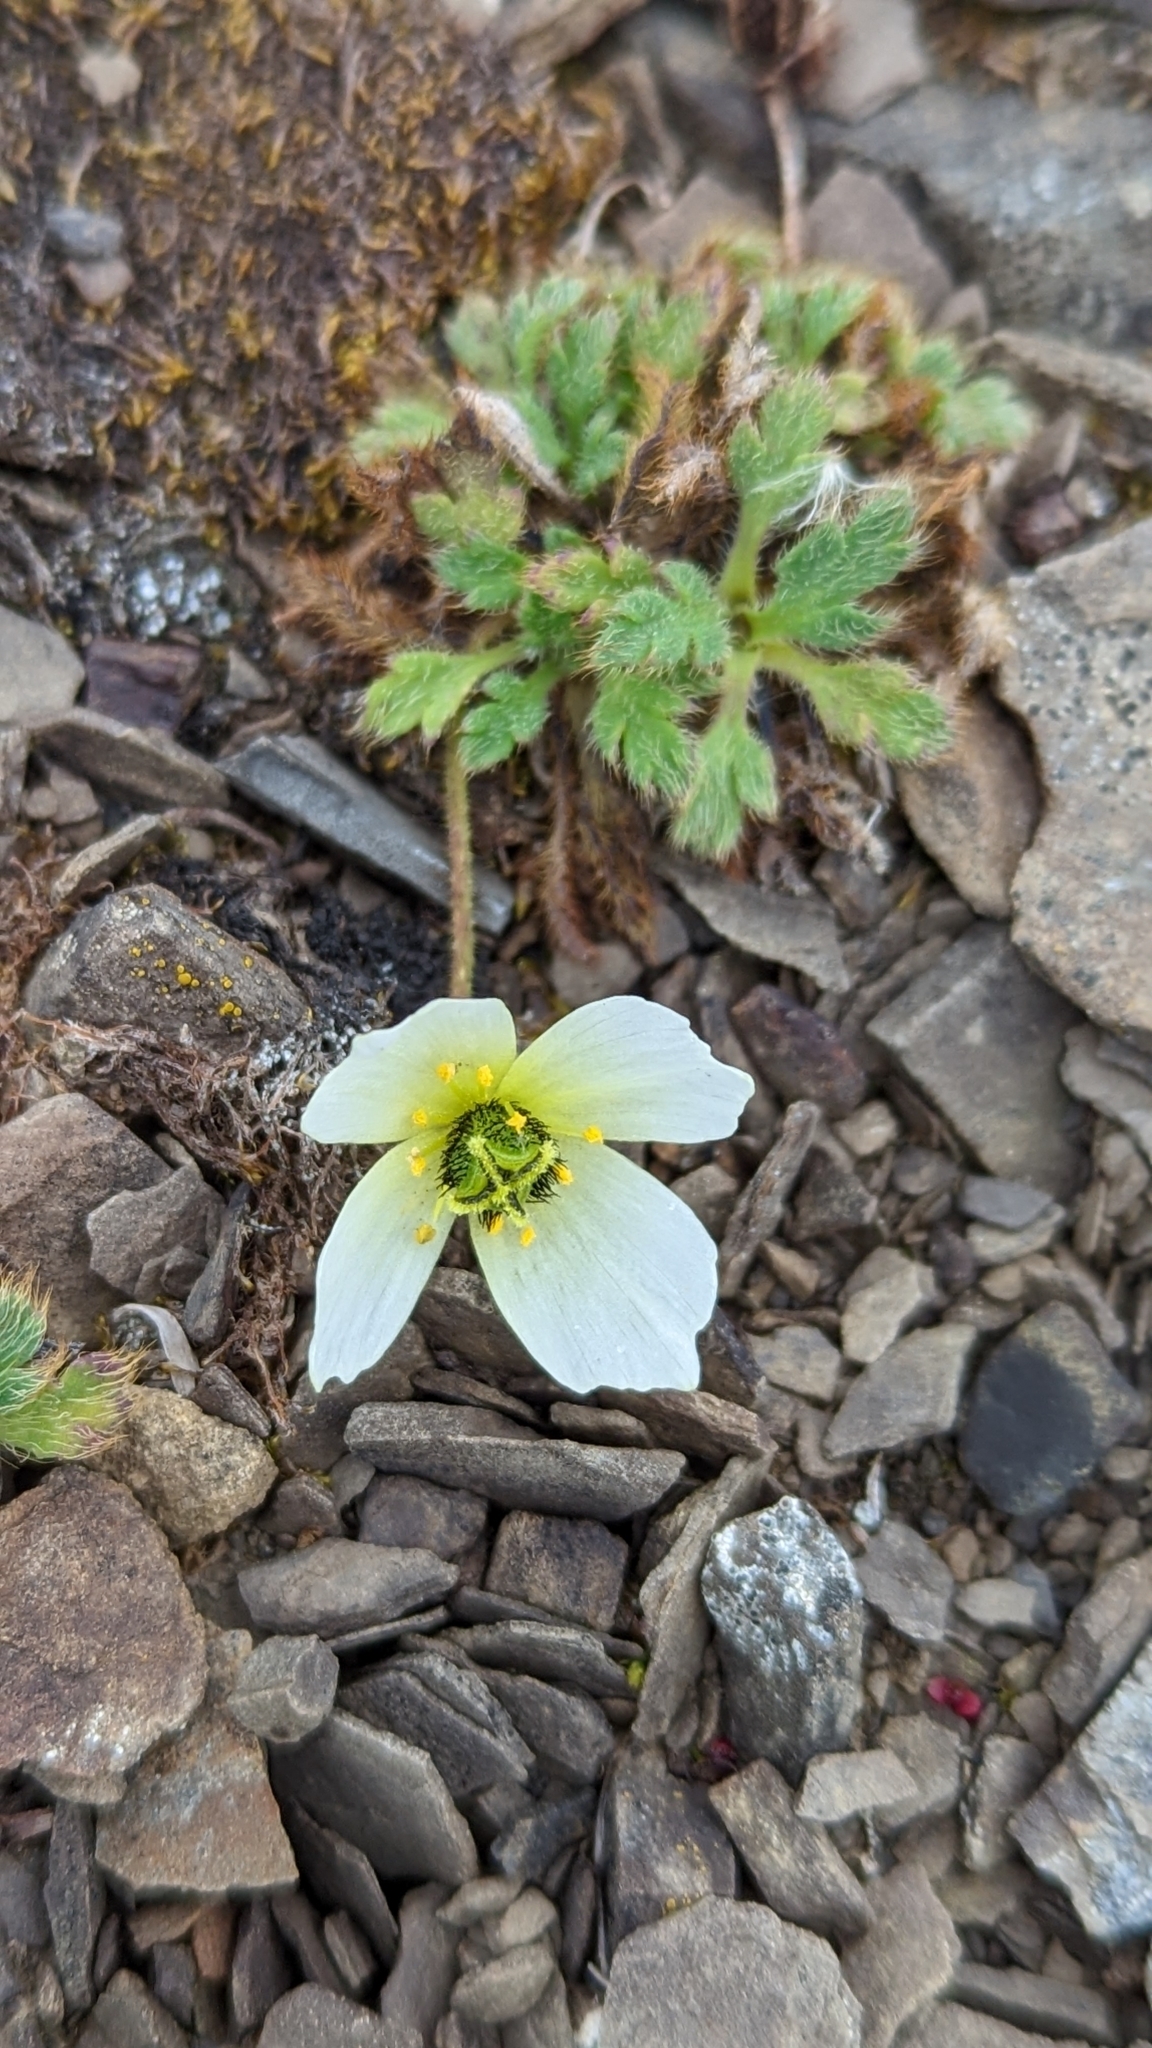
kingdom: Plantae
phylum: Tracheophyta
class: Magnoliopsida
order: Ranunculales
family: Papaveraceae
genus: Papaver
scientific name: Papaver radicatum
